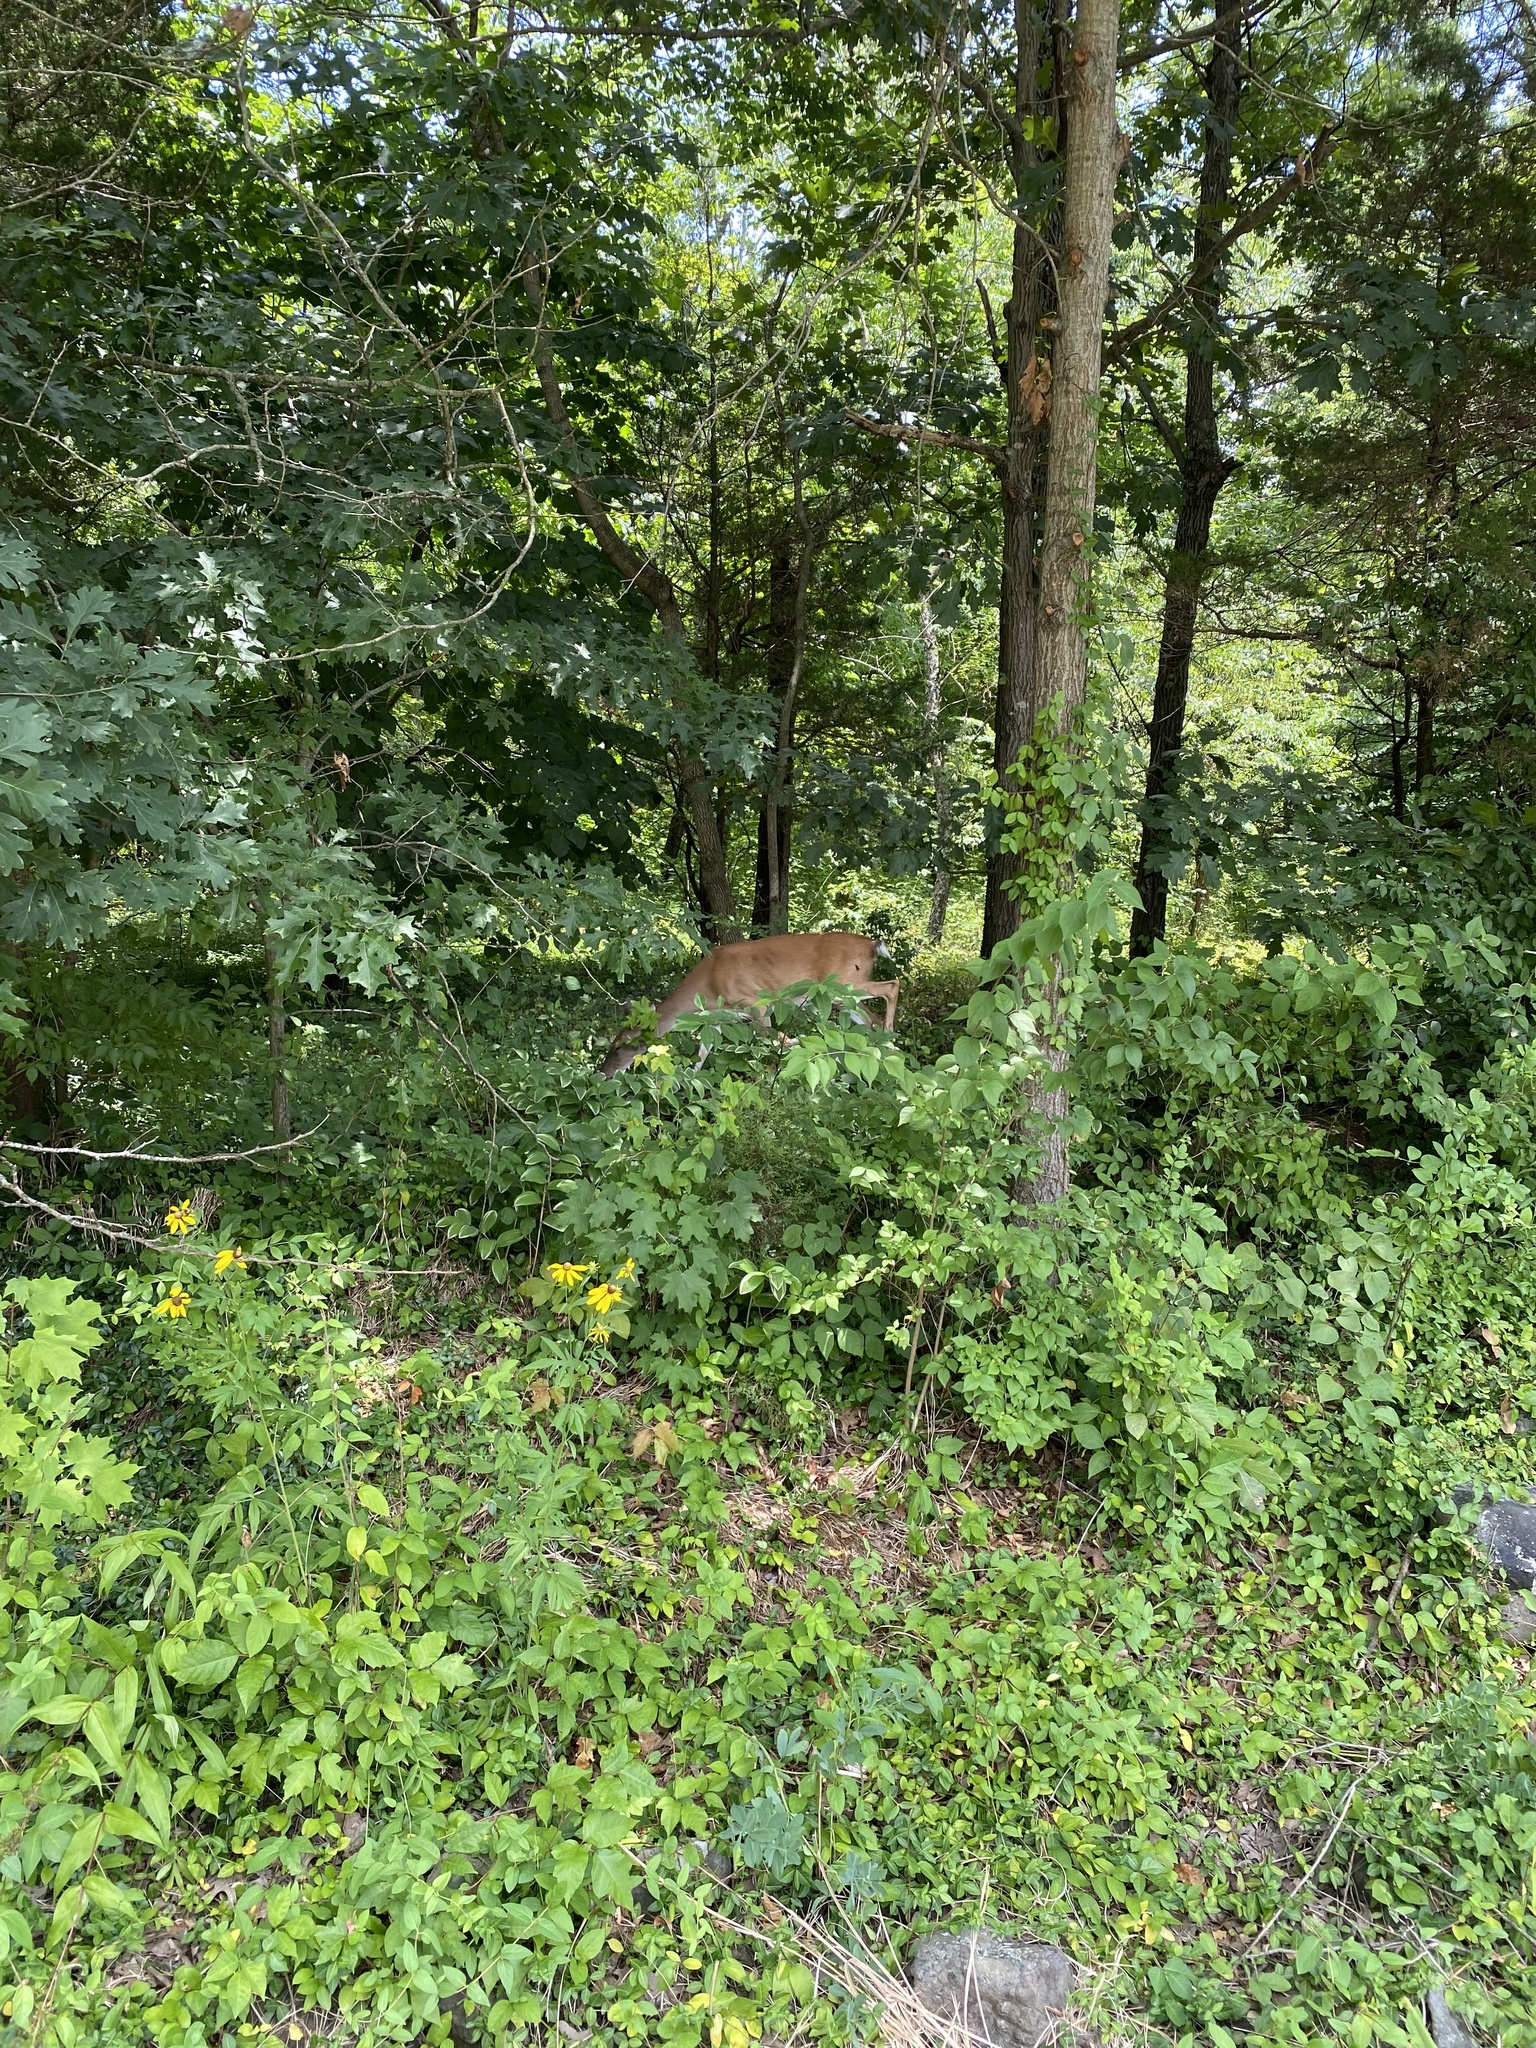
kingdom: Animalia
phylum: Chordata
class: Mammalia
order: Artiodactyla
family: Cervidae
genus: Odocoileus
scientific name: Odocoileus virginianus
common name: White-tailed deer
